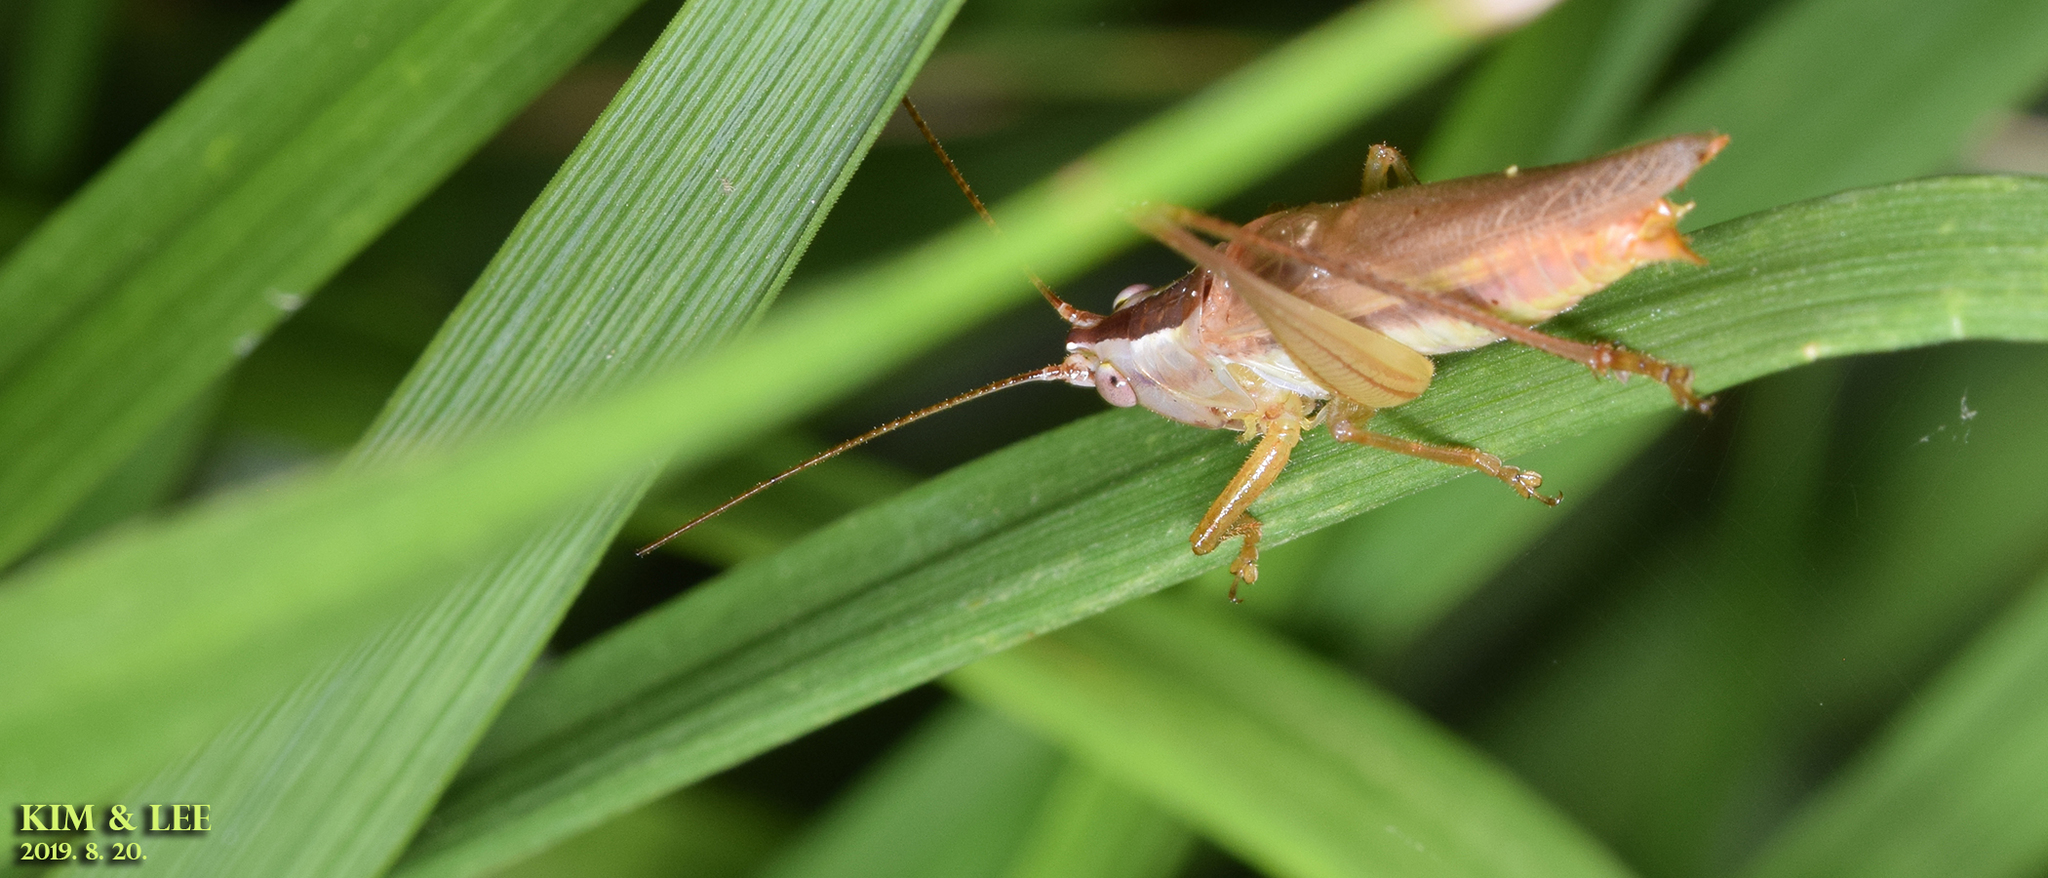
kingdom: Animalia
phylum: Arthropoda
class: Insecta
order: Orthoptera
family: Tettigoniidae
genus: Conocephalus
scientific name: Conocephalus exemptus
